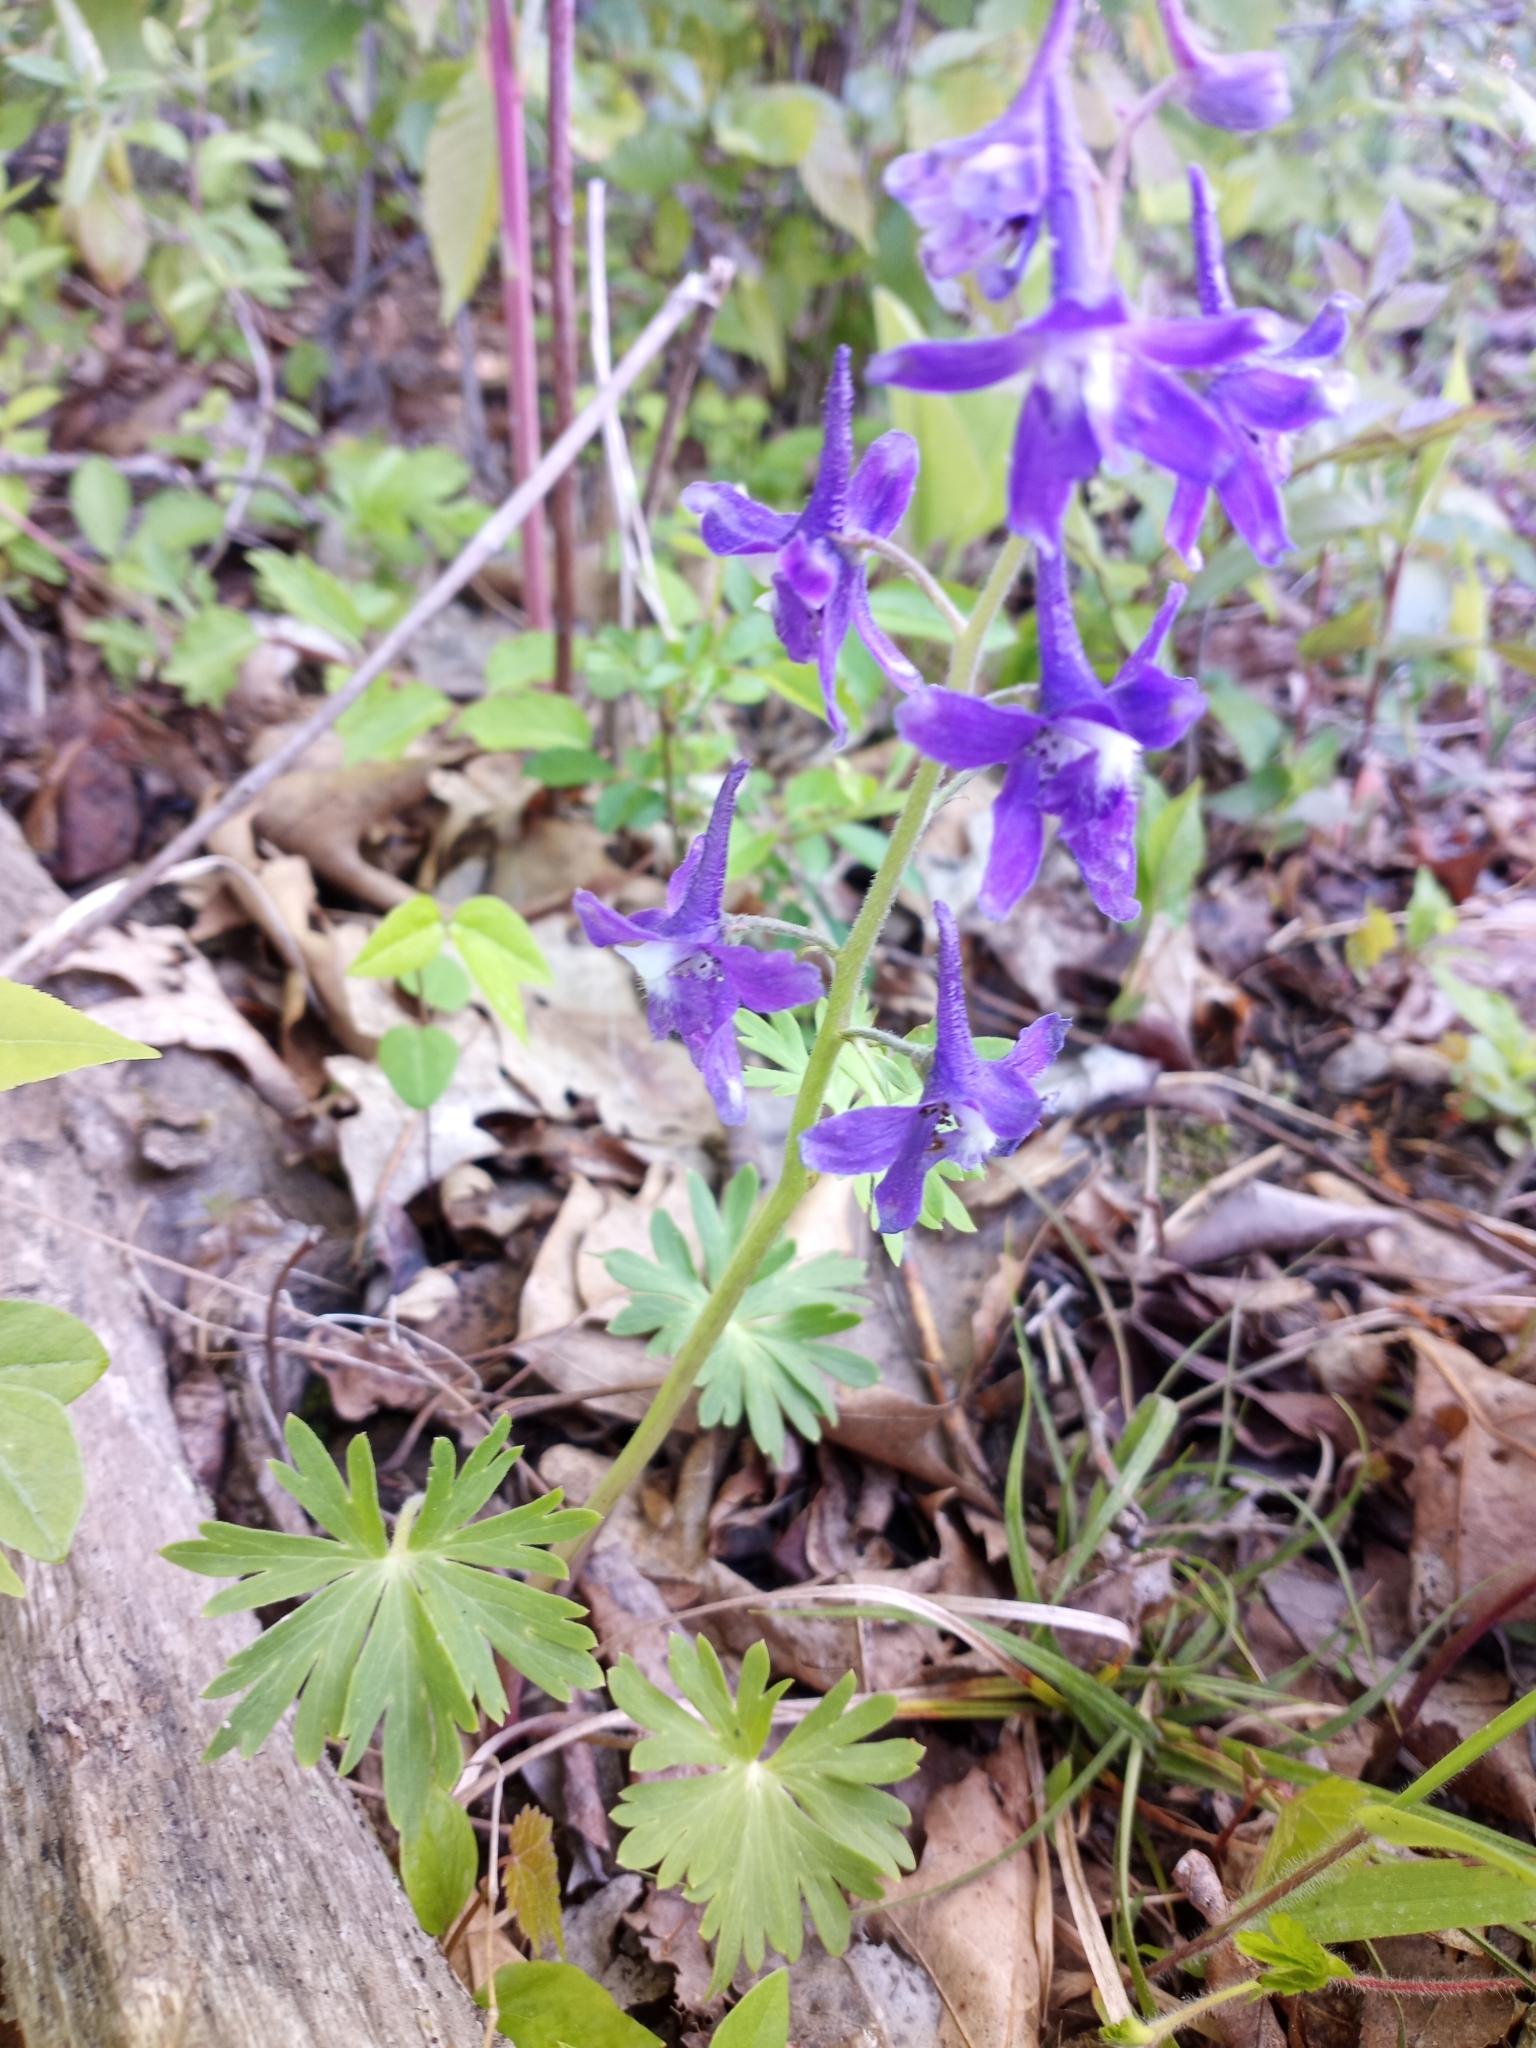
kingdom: Plantae
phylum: Tracheophyta
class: Magnoliopsida
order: Ranunculales
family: Ranunculaceae
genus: Delphinium
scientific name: Delphinium tricorne
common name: Dwarf larkspur
